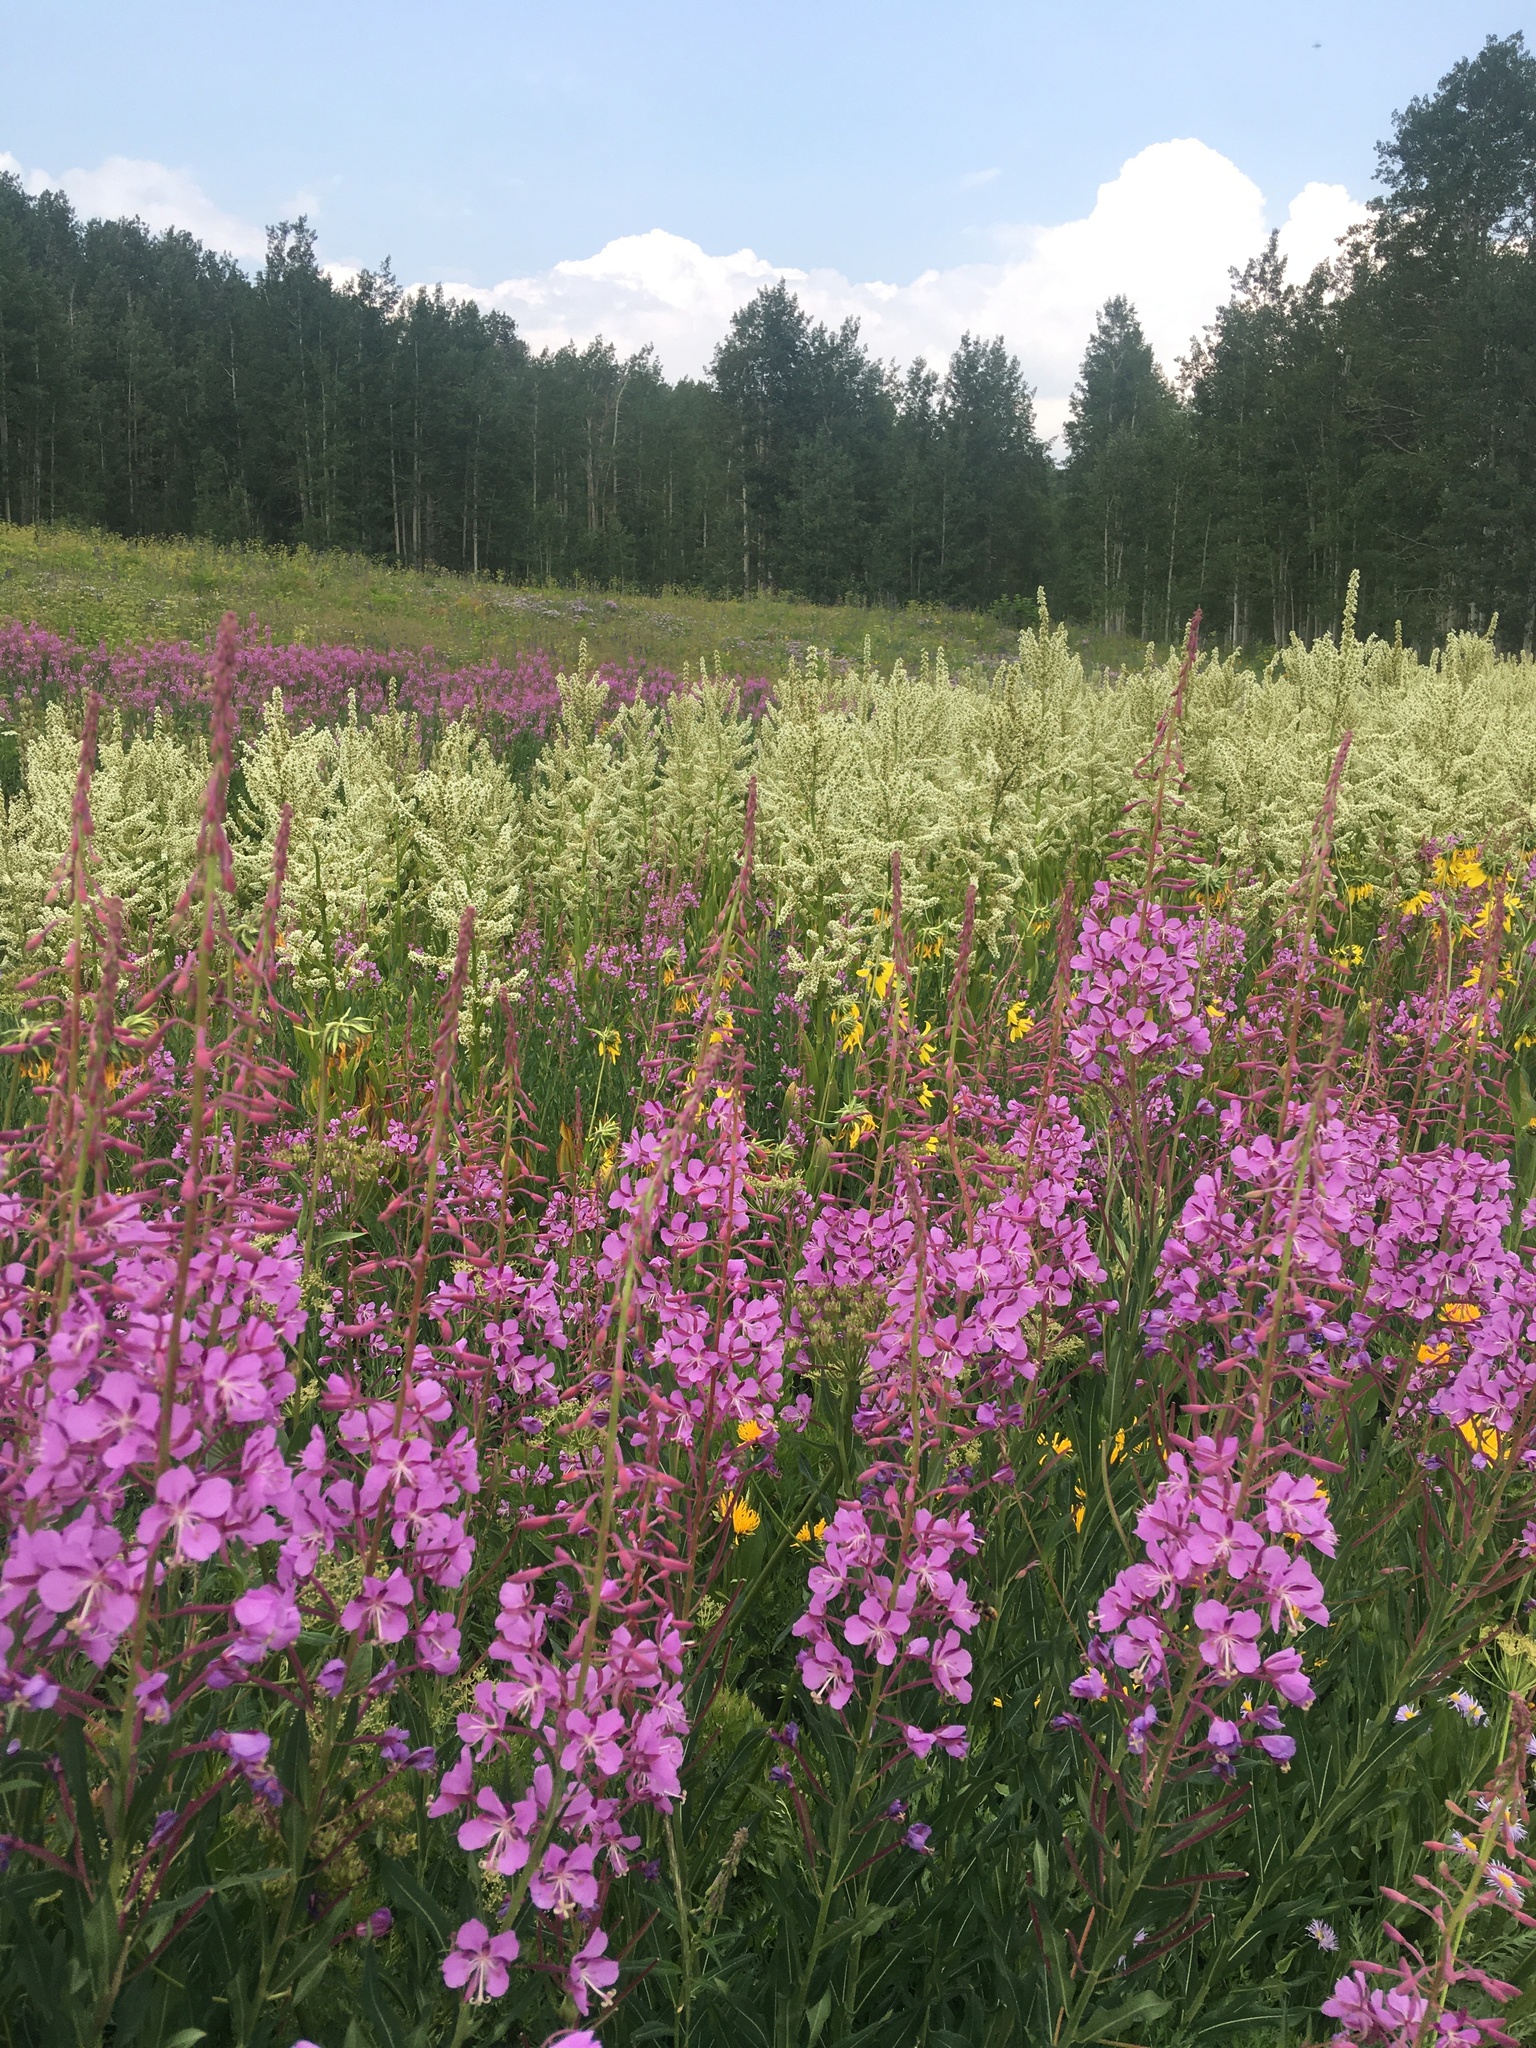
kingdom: Plantae
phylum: Tracheophyta
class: Magnoliopsida
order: Myrtales
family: Onagraceae
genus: Chamaenerion
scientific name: Chamaenerion angustifolium
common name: Fireweed
